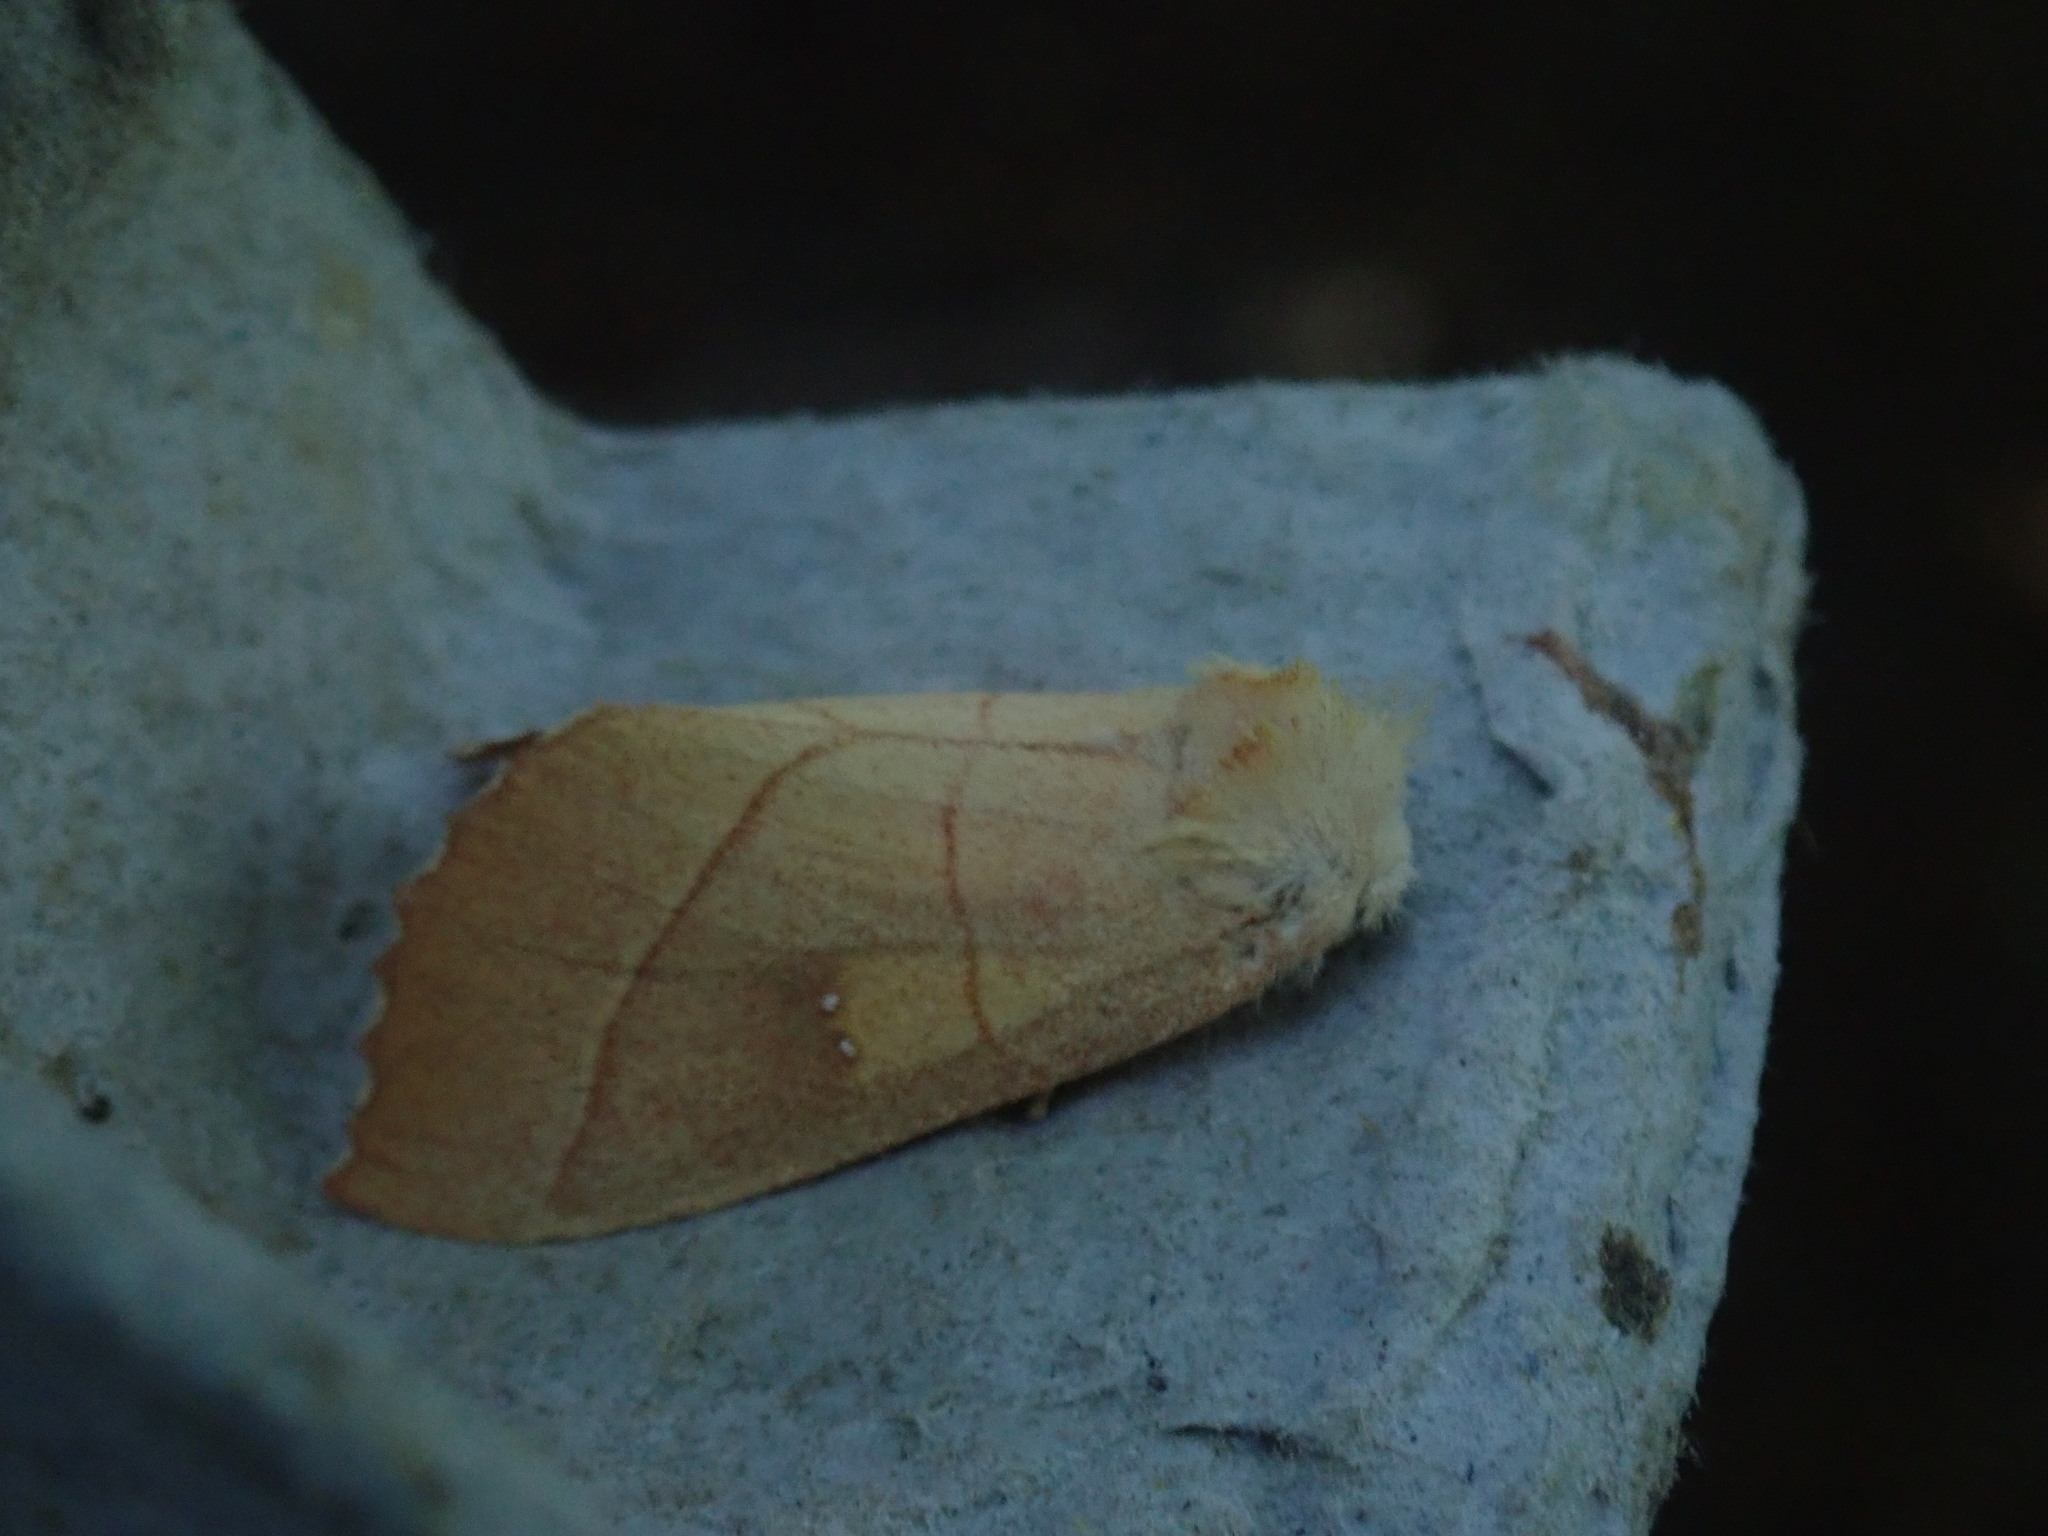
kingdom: Animalia
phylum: Arthropoda
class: Insecta
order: Lepidoptera
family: Notodontidae
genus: Nadata
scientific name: Nadata gibbosa
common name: White-dotted prominent
